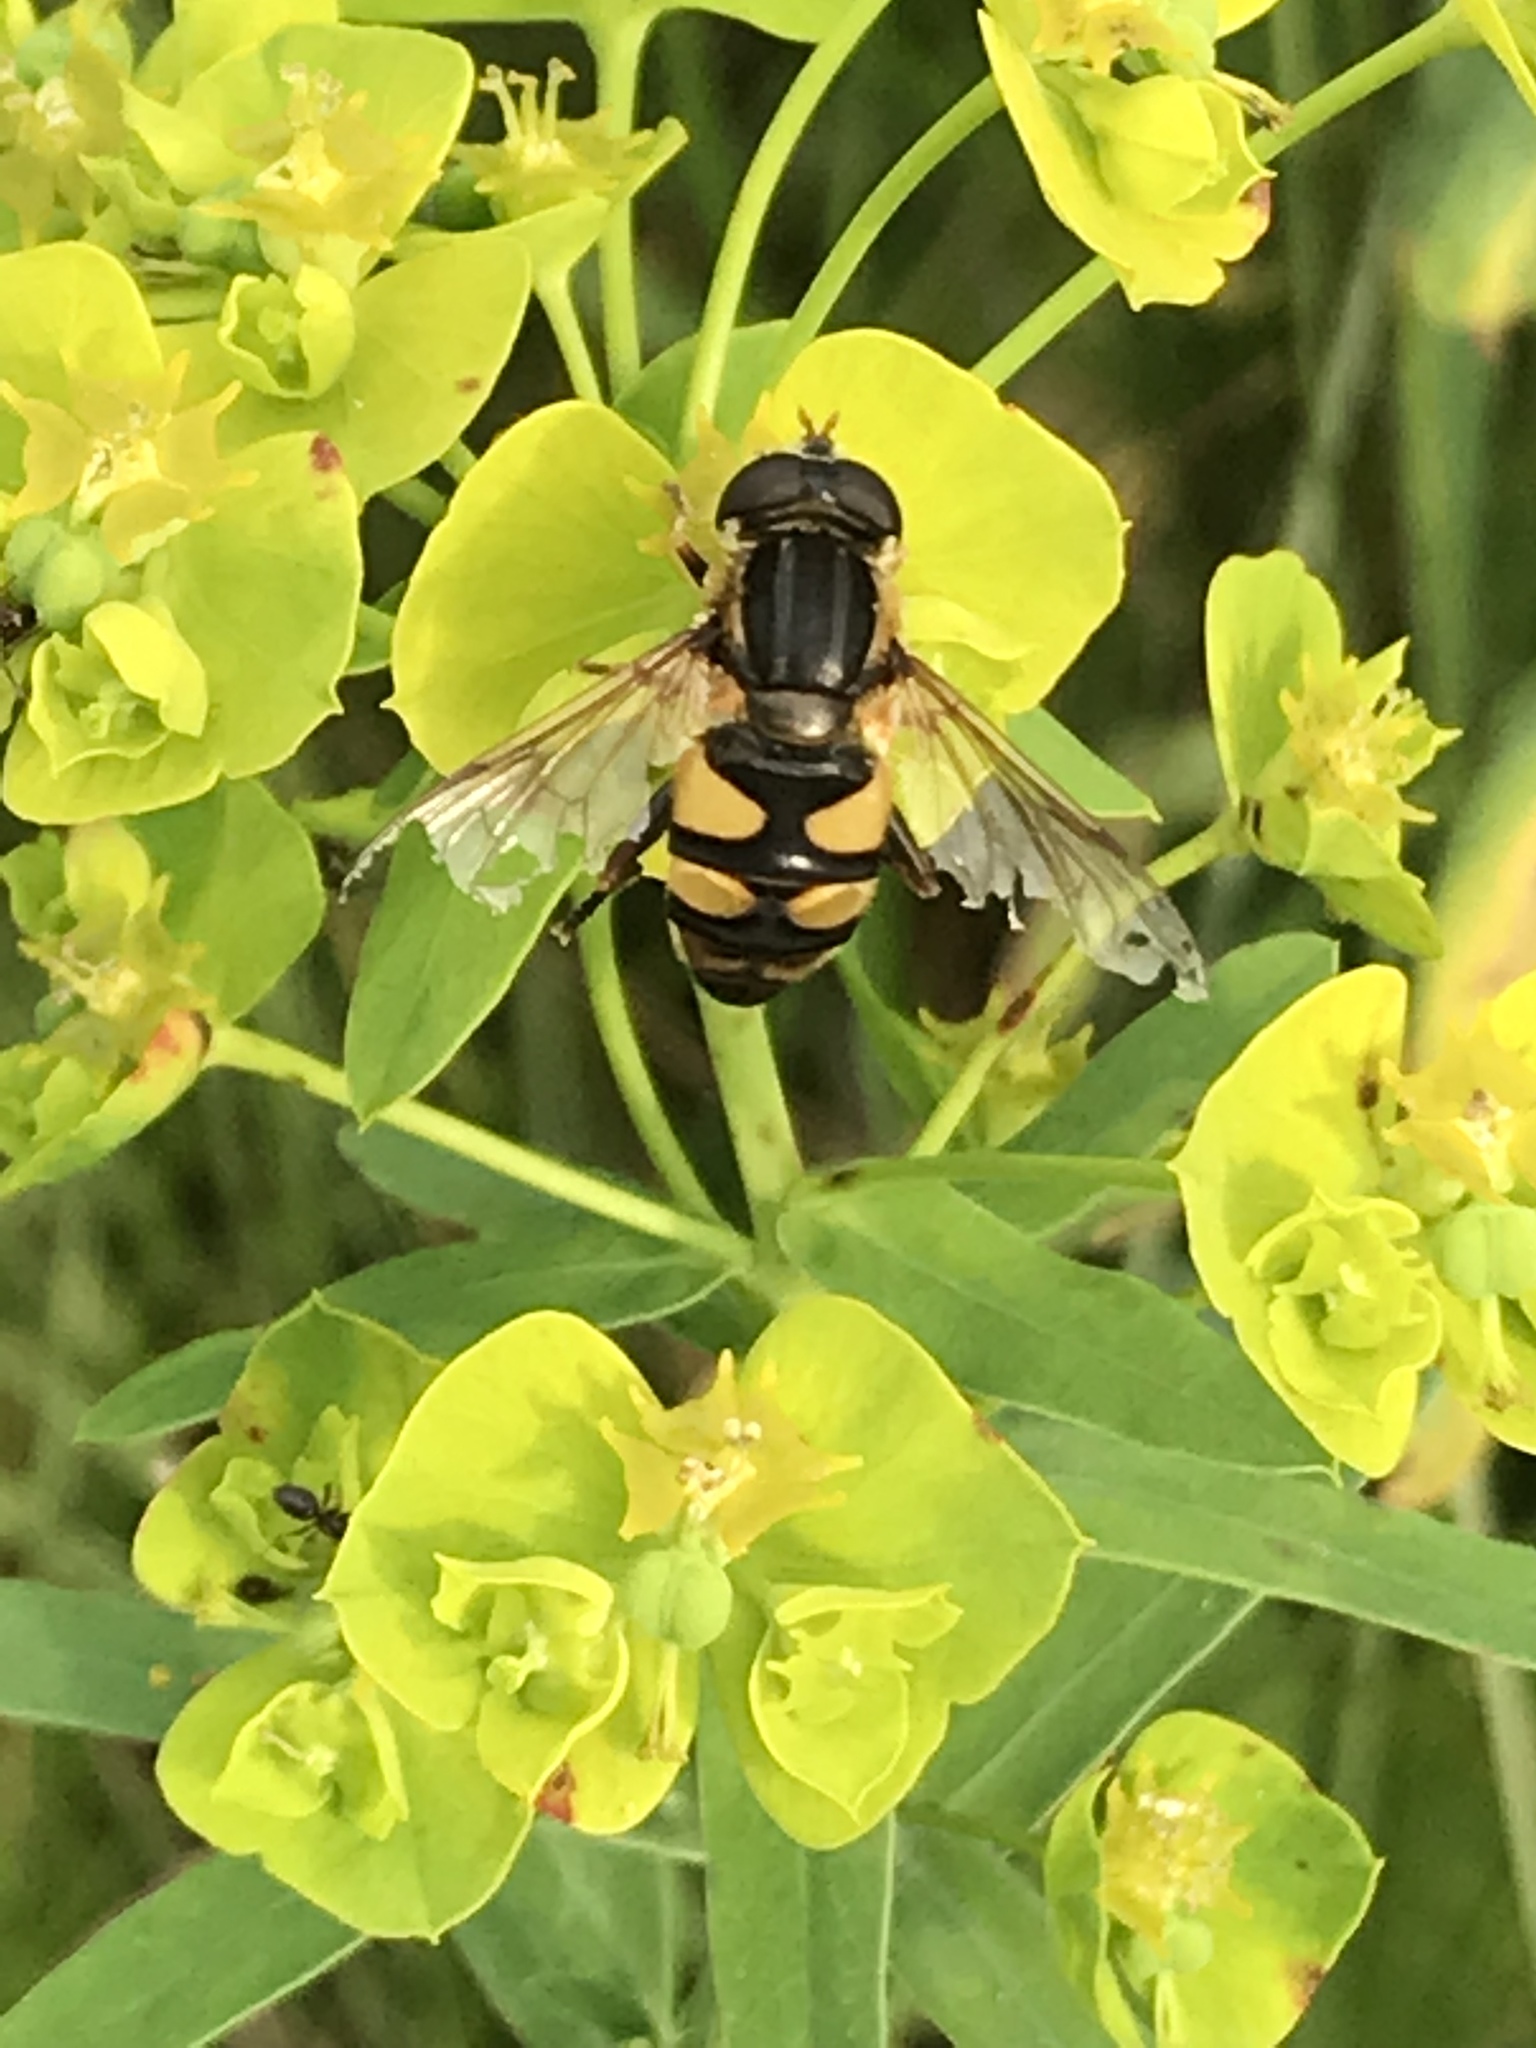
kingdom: Animalia
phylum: Arthropoda
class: Insecta
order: Diptera
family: Syrphidae
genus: Helophilus
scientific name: Helophilus fasciatus
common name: Narrow-headed marsh fly
